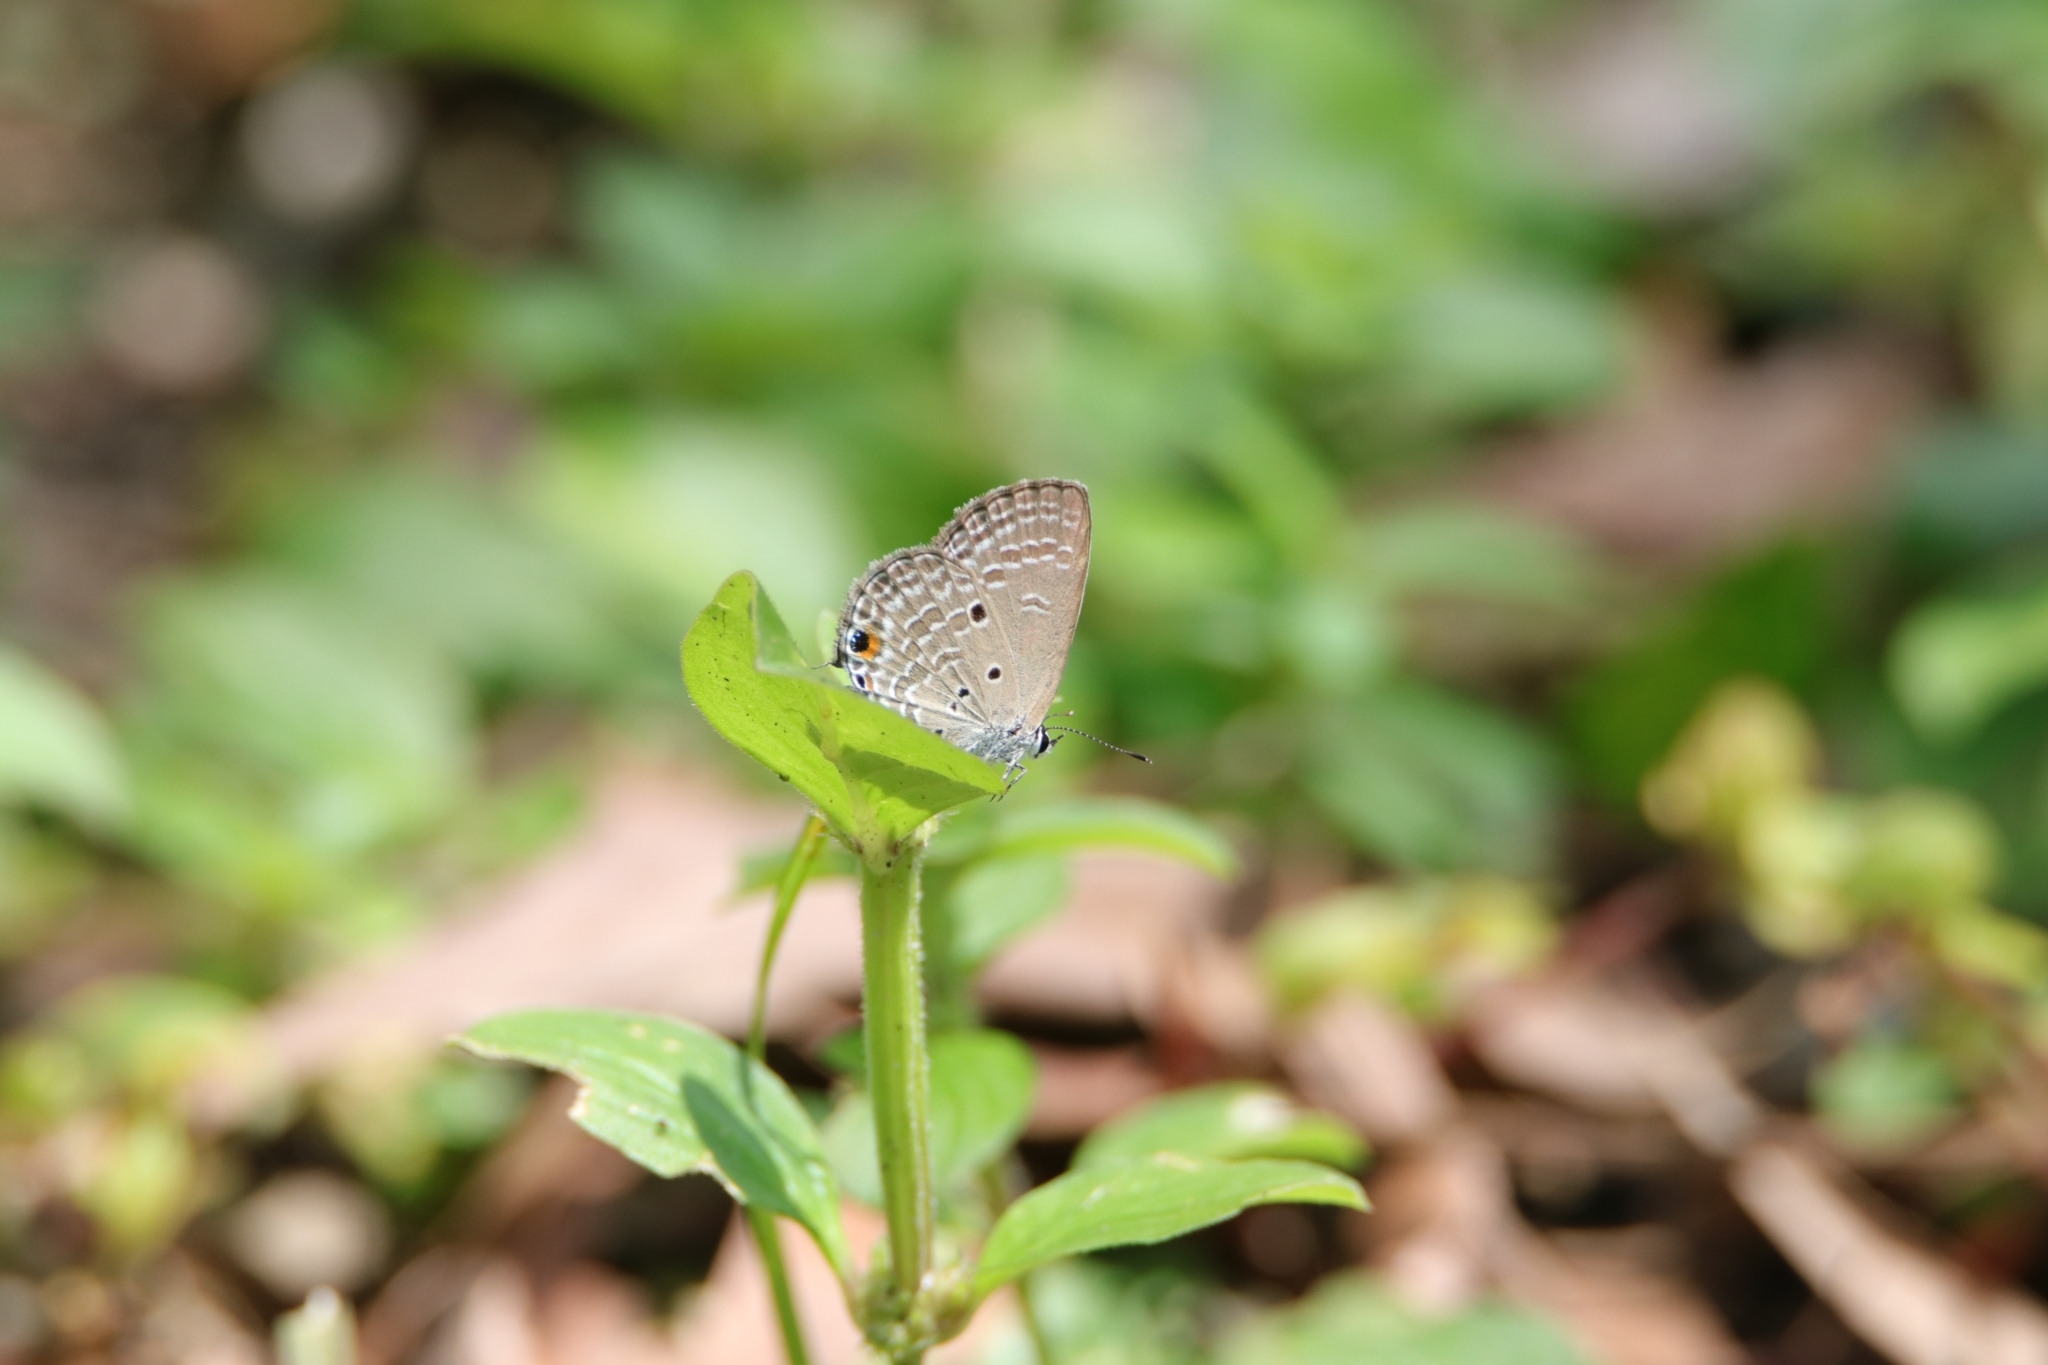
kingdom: Animalia
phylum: Arthropoda
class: Insecta
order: Lepidoptera
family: Lycaenidae
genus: Luthrodes
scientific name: Luthrodes pandava
